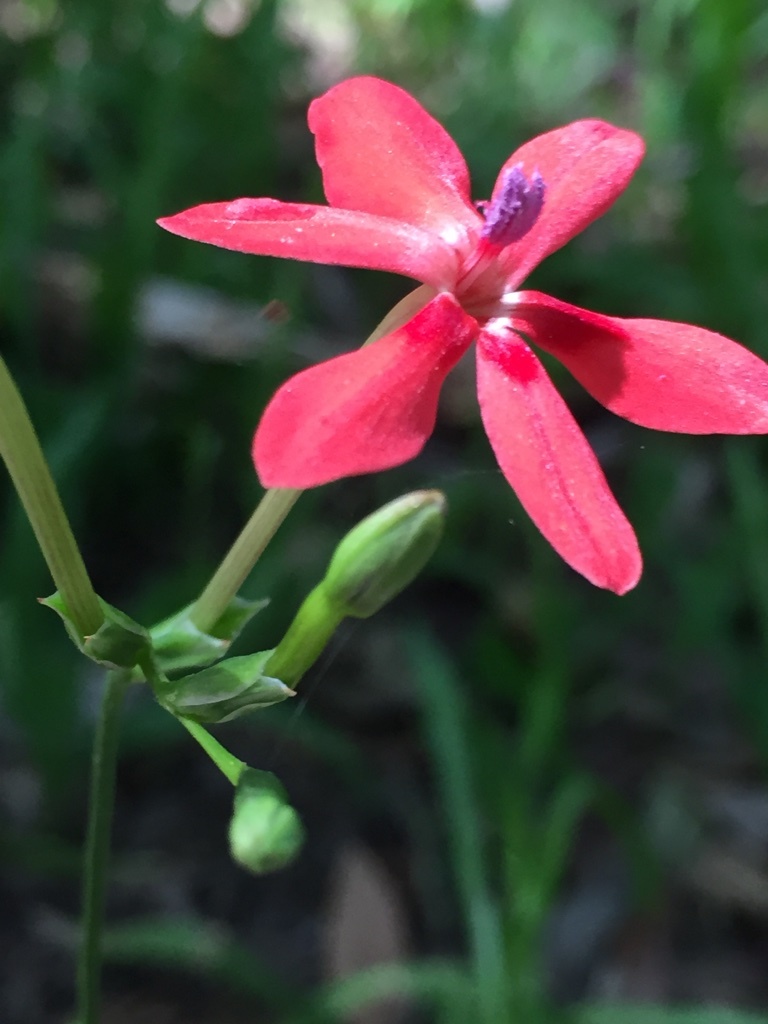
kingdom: Plantae
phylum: Tracheophyta
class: Liliopsida
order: Asparagales
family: Iridaceae
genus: Freesia
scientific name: Freesia laxa
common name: False freesia
